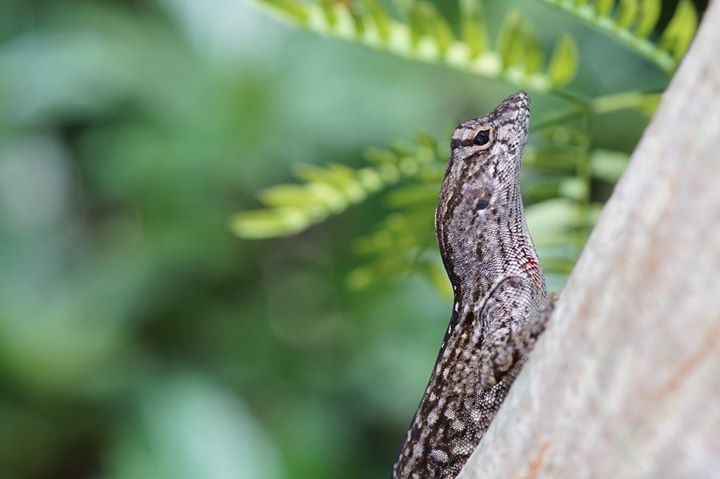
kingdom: Animalia
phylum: Chordata
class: Squamata
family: Dactyloidae
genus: Anolis
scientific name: Anolis sagrei
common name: Brown anole
